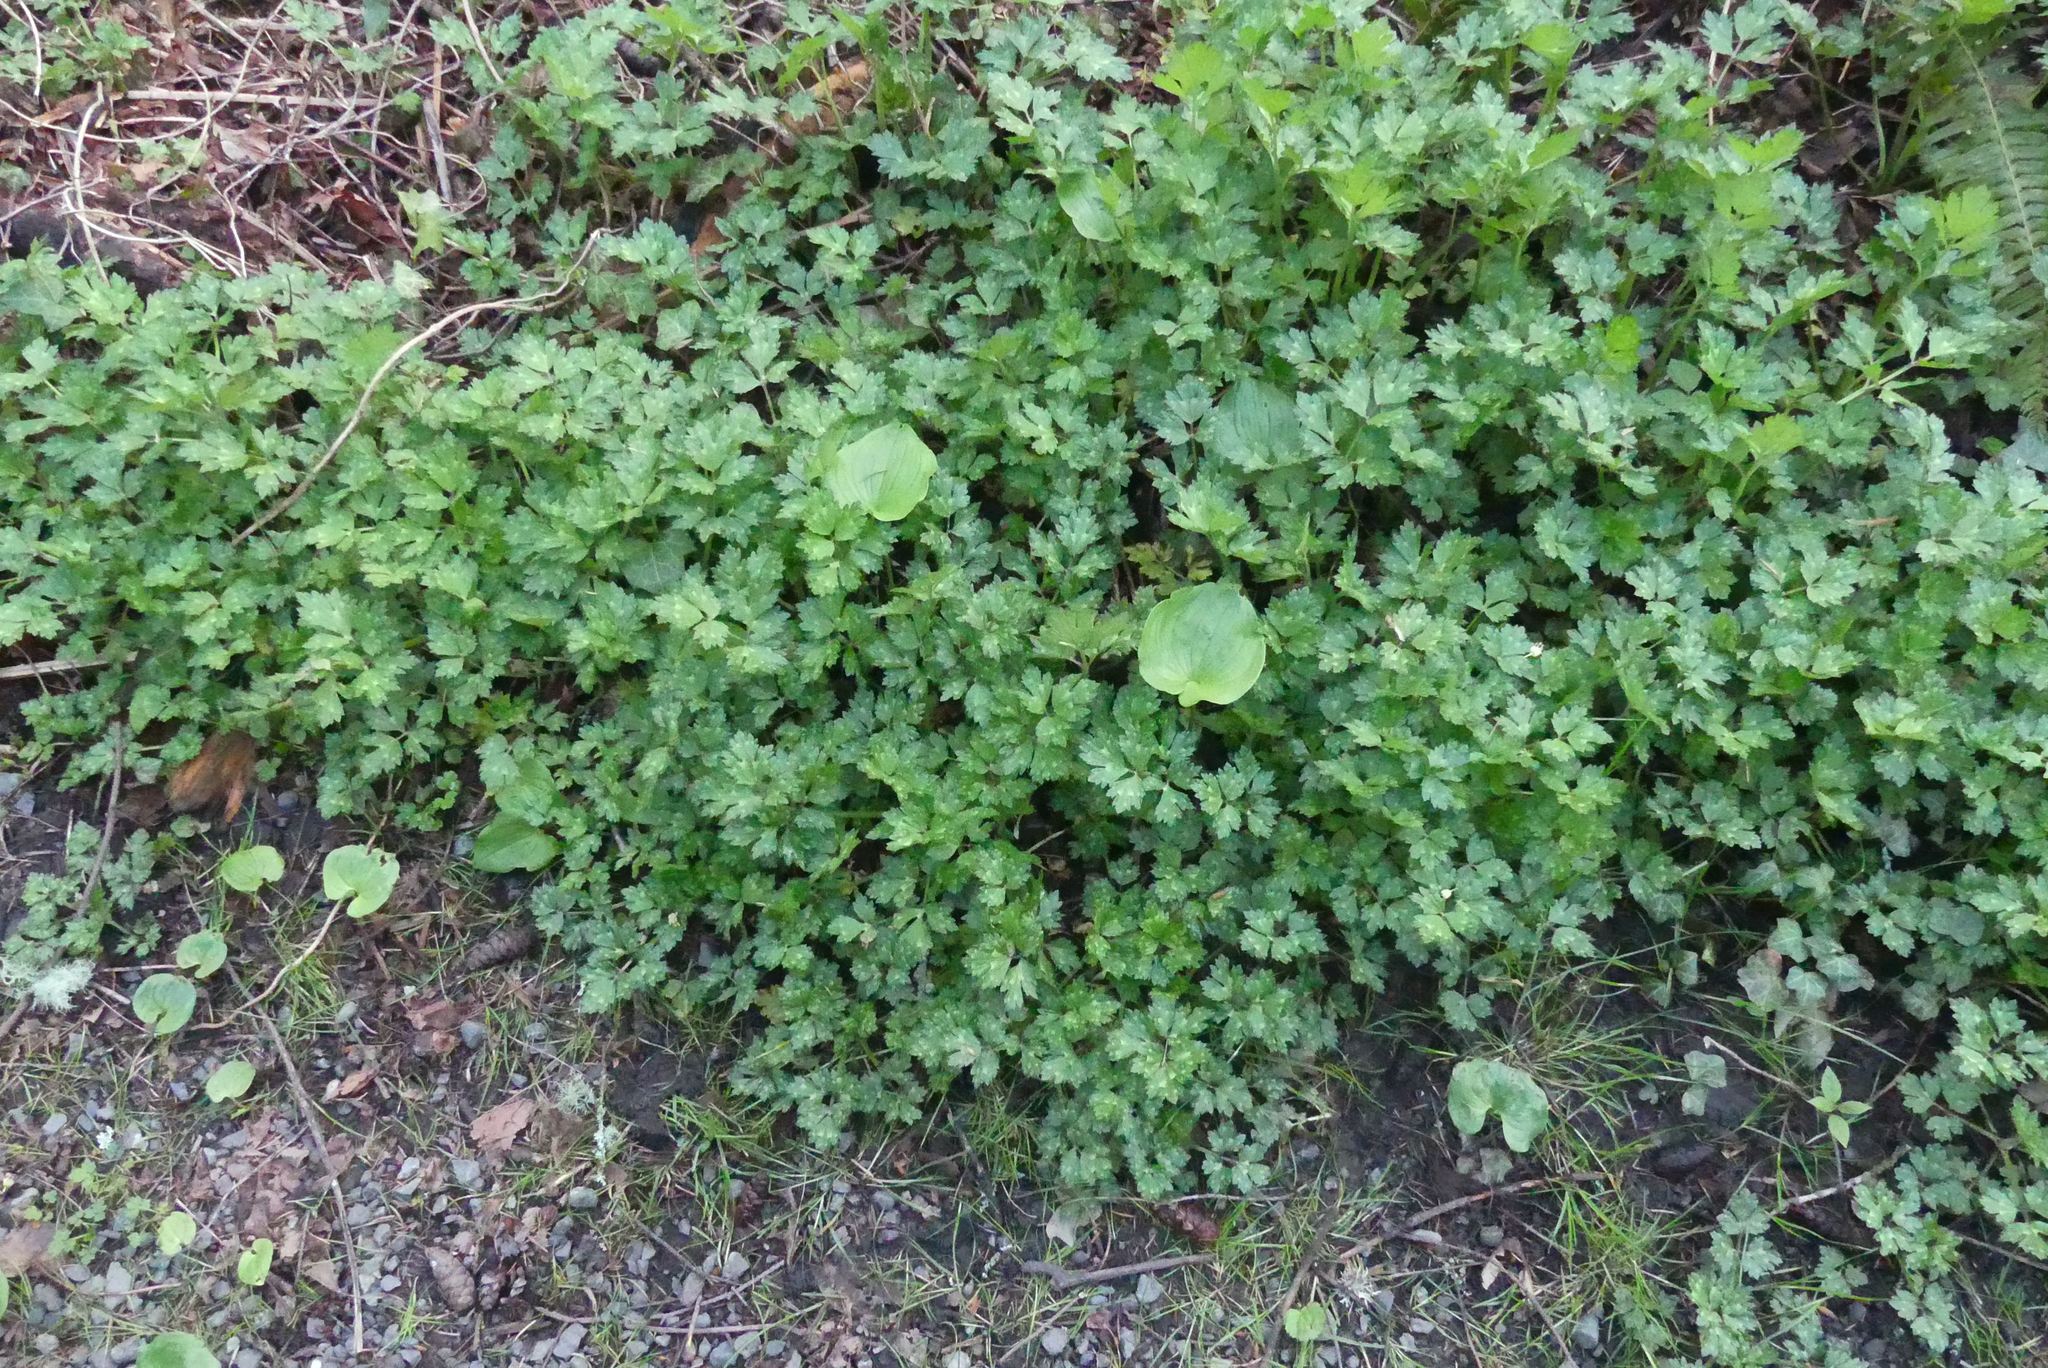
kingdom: Plantae
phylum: Tracheophyta
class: Magnoliopsida
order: Ranunculales
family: Ranunculaceae
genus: Ranunculus
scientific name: Ranunculus repens
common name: Creeping buttercup
